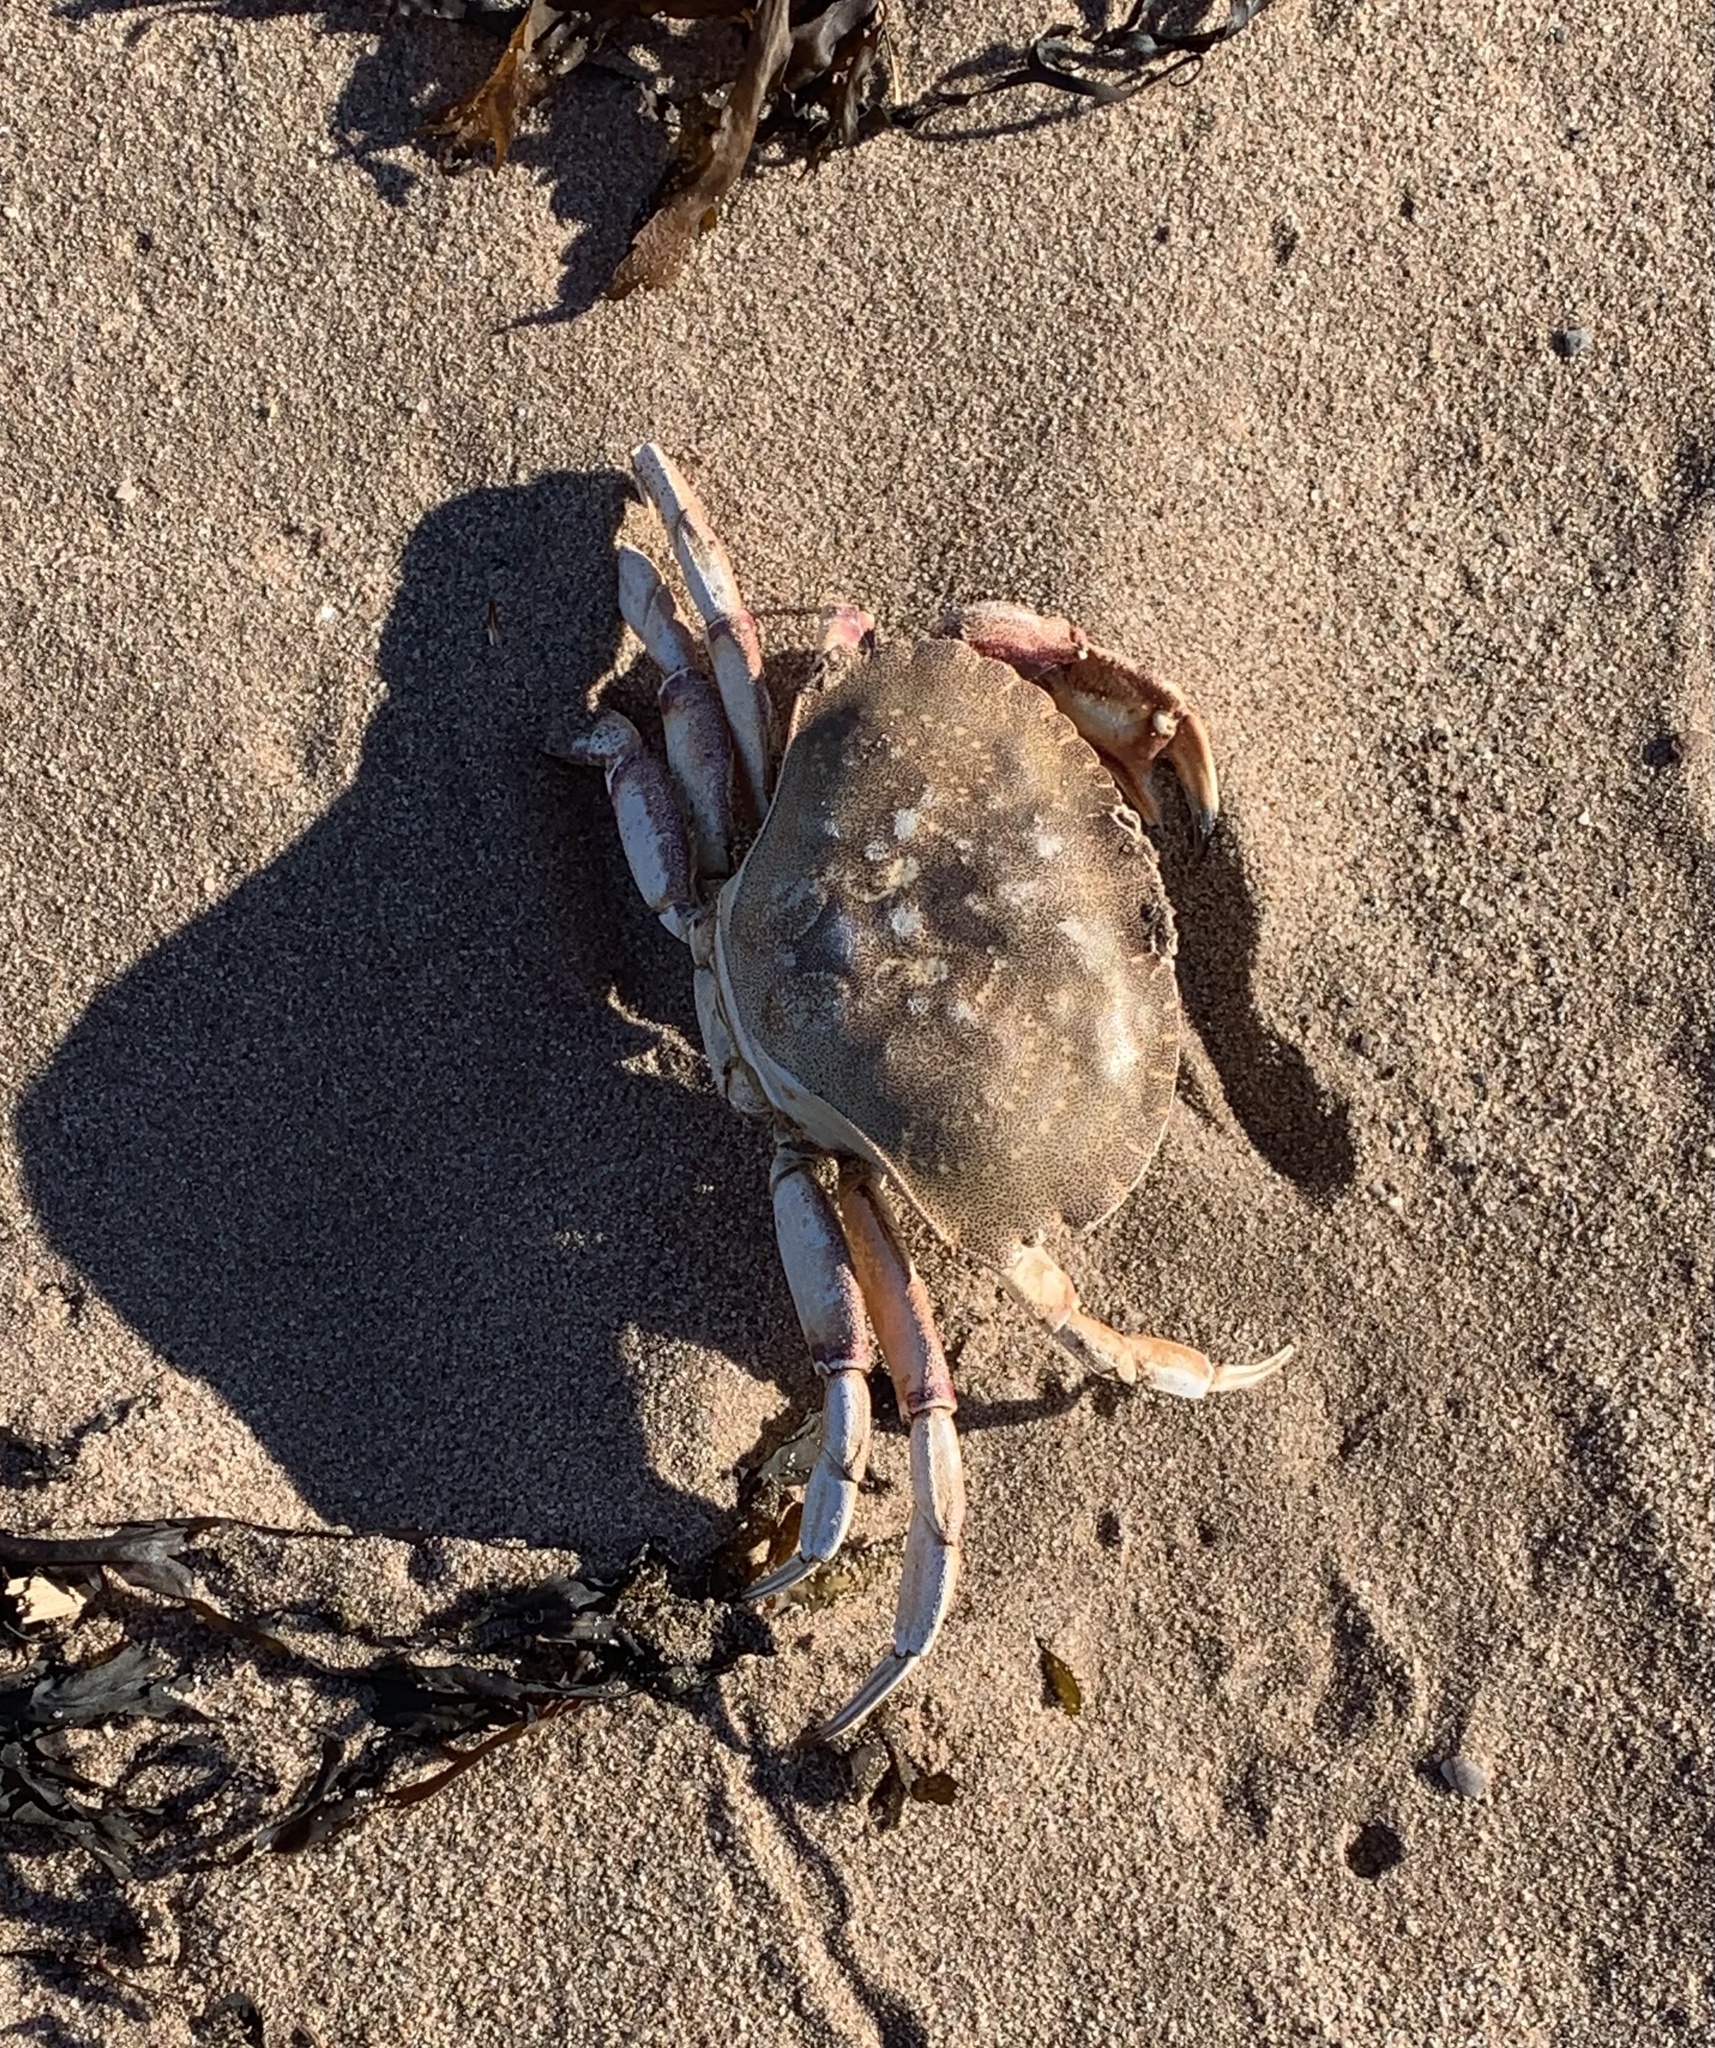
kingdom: Animalia
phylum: Arthropoda
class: Malacostraca
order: Decapoda
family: Cancridae
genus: Cancer
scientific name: Cancer irroratus
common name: Atlantic rock crab
